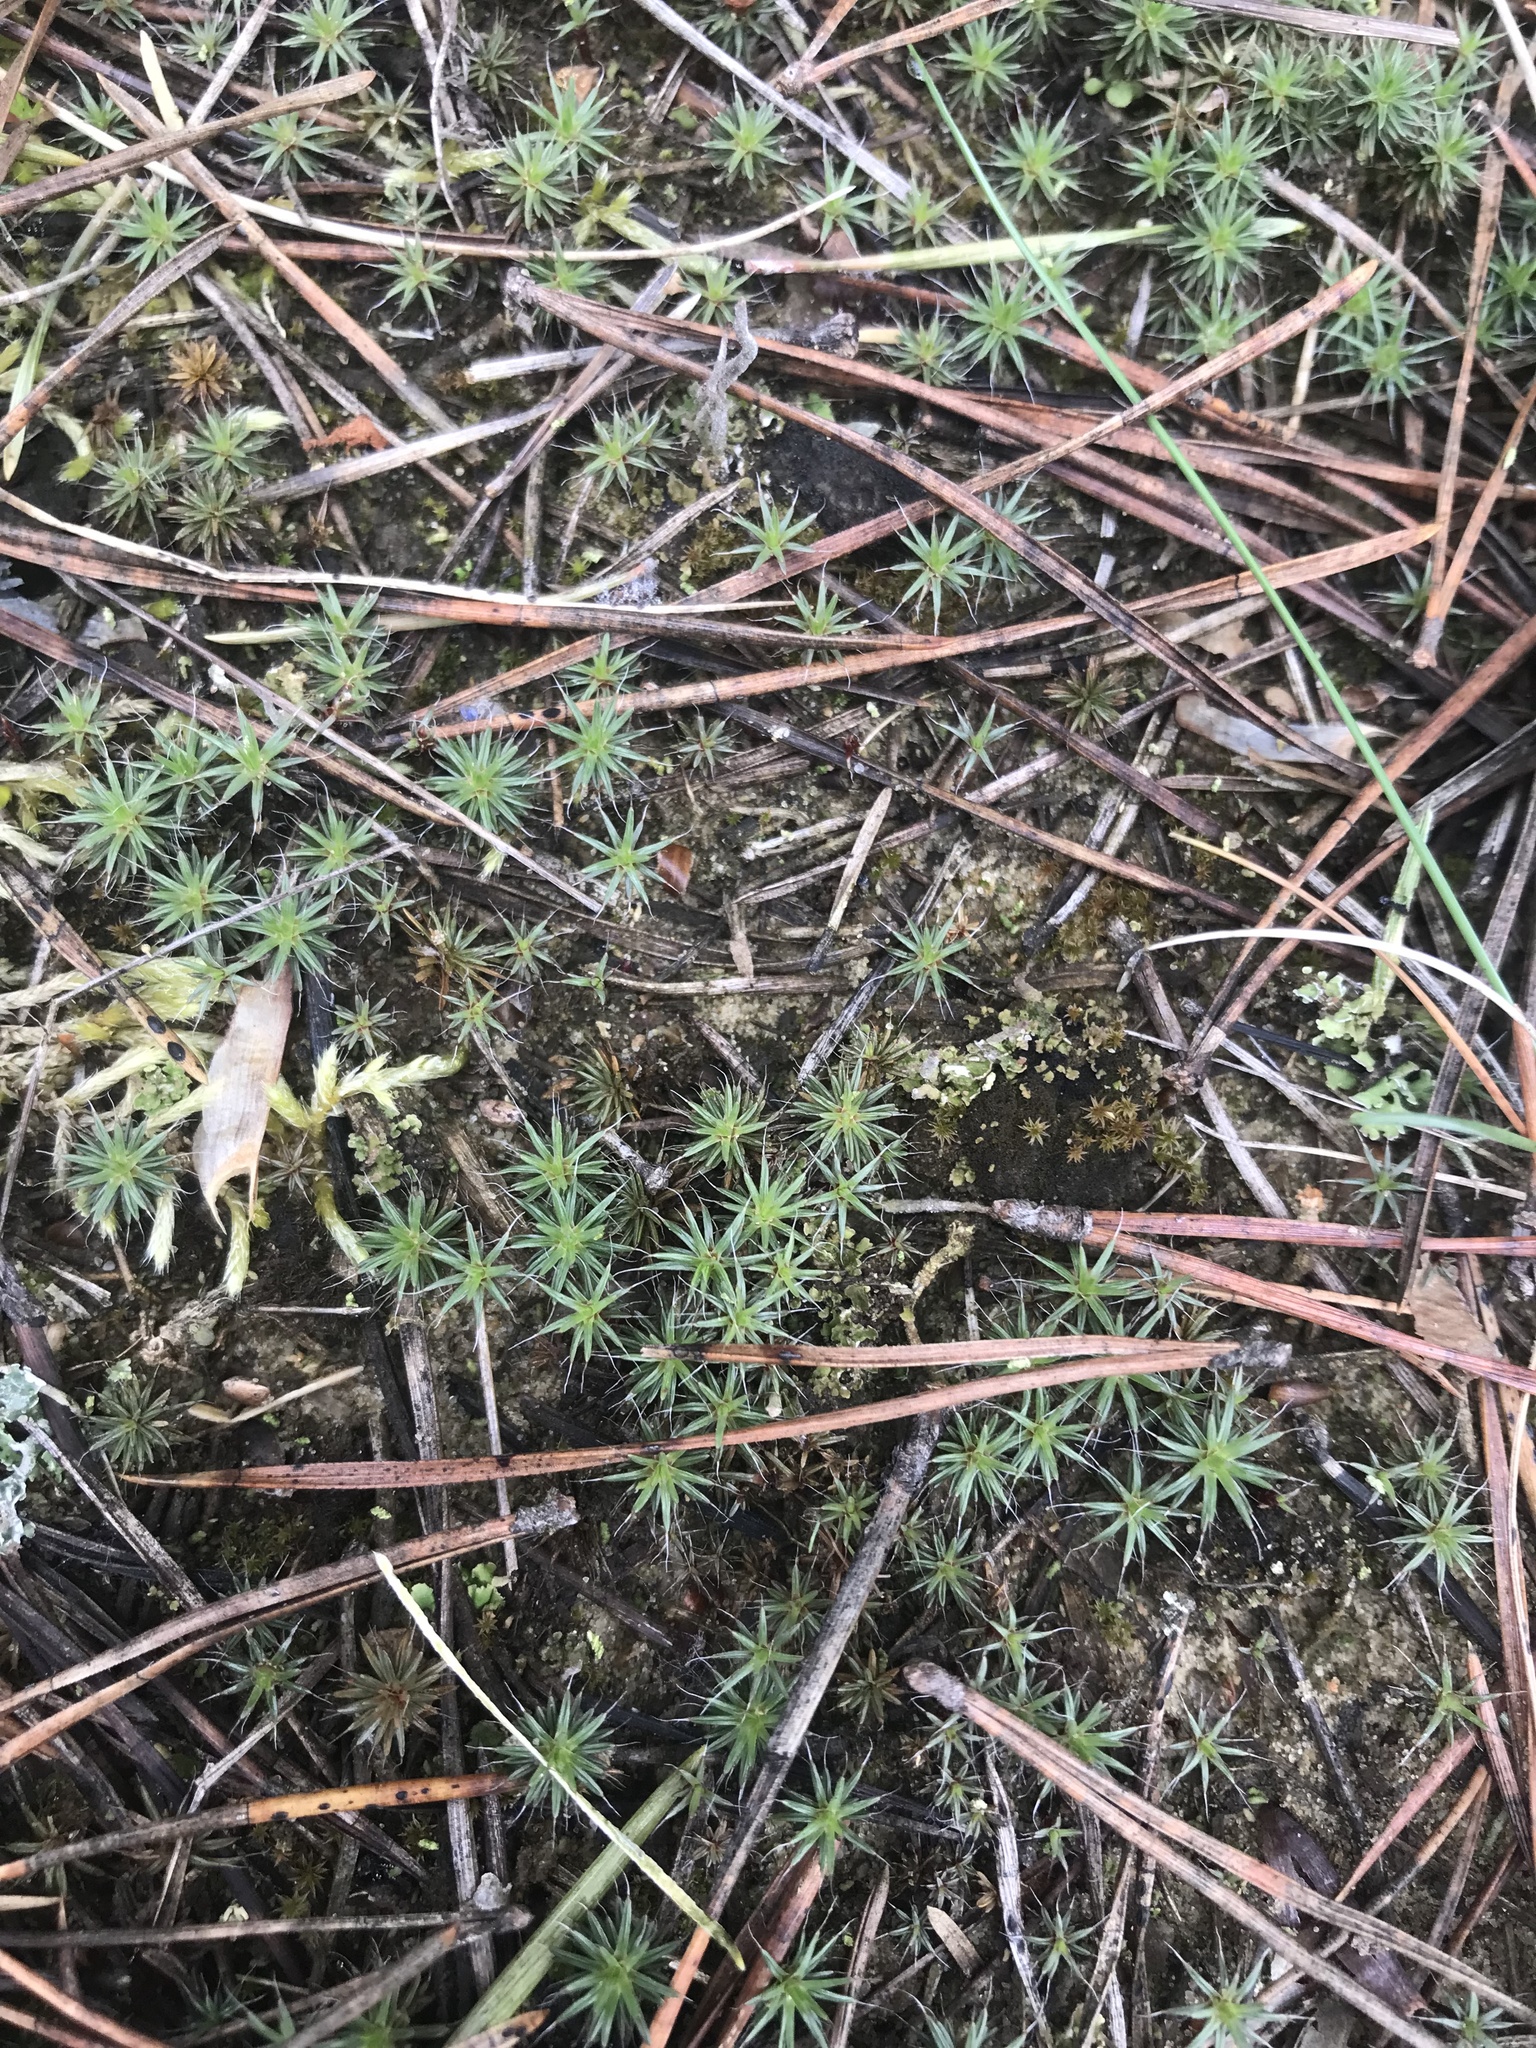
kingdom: Plantae
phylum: Bryophyta
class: Polytrichopsida
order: Polytrichales
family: Polytrichaceae
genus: Polytrichum
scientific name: Polytrichum piliferum
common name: Bristly haircap
